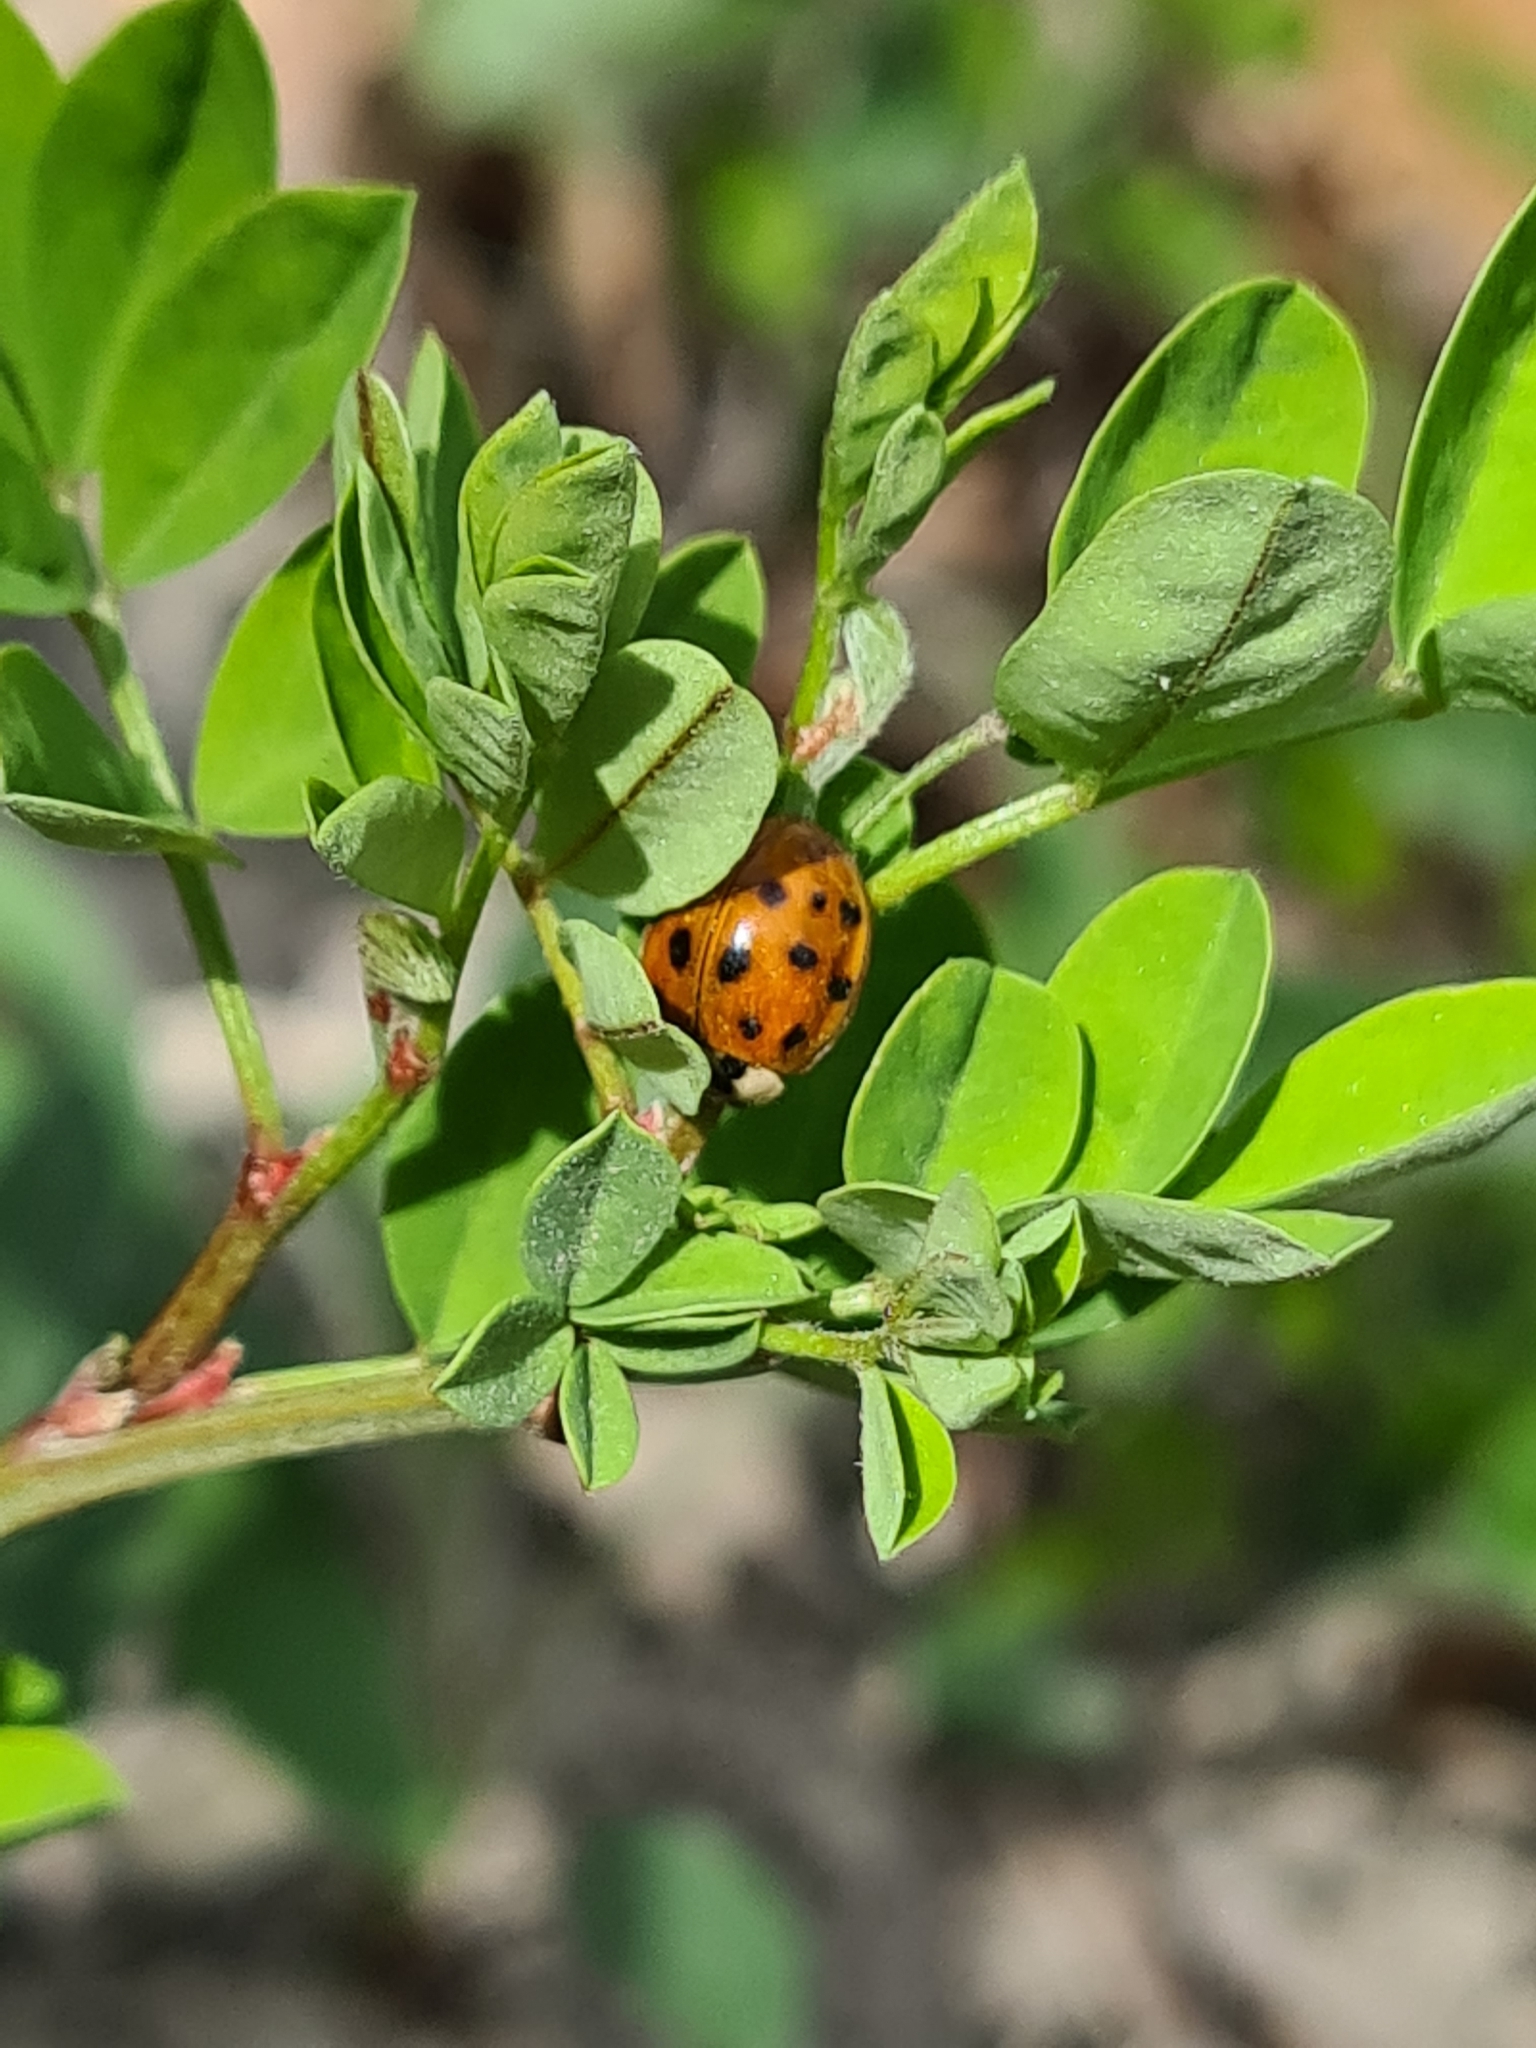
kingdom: Animalia
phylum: Arthropoda
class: Insecta
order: Coleoptera
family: Coccinellidae
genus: Harmonia
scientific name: Harmonia axyridis
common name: Harlequin ladybird
